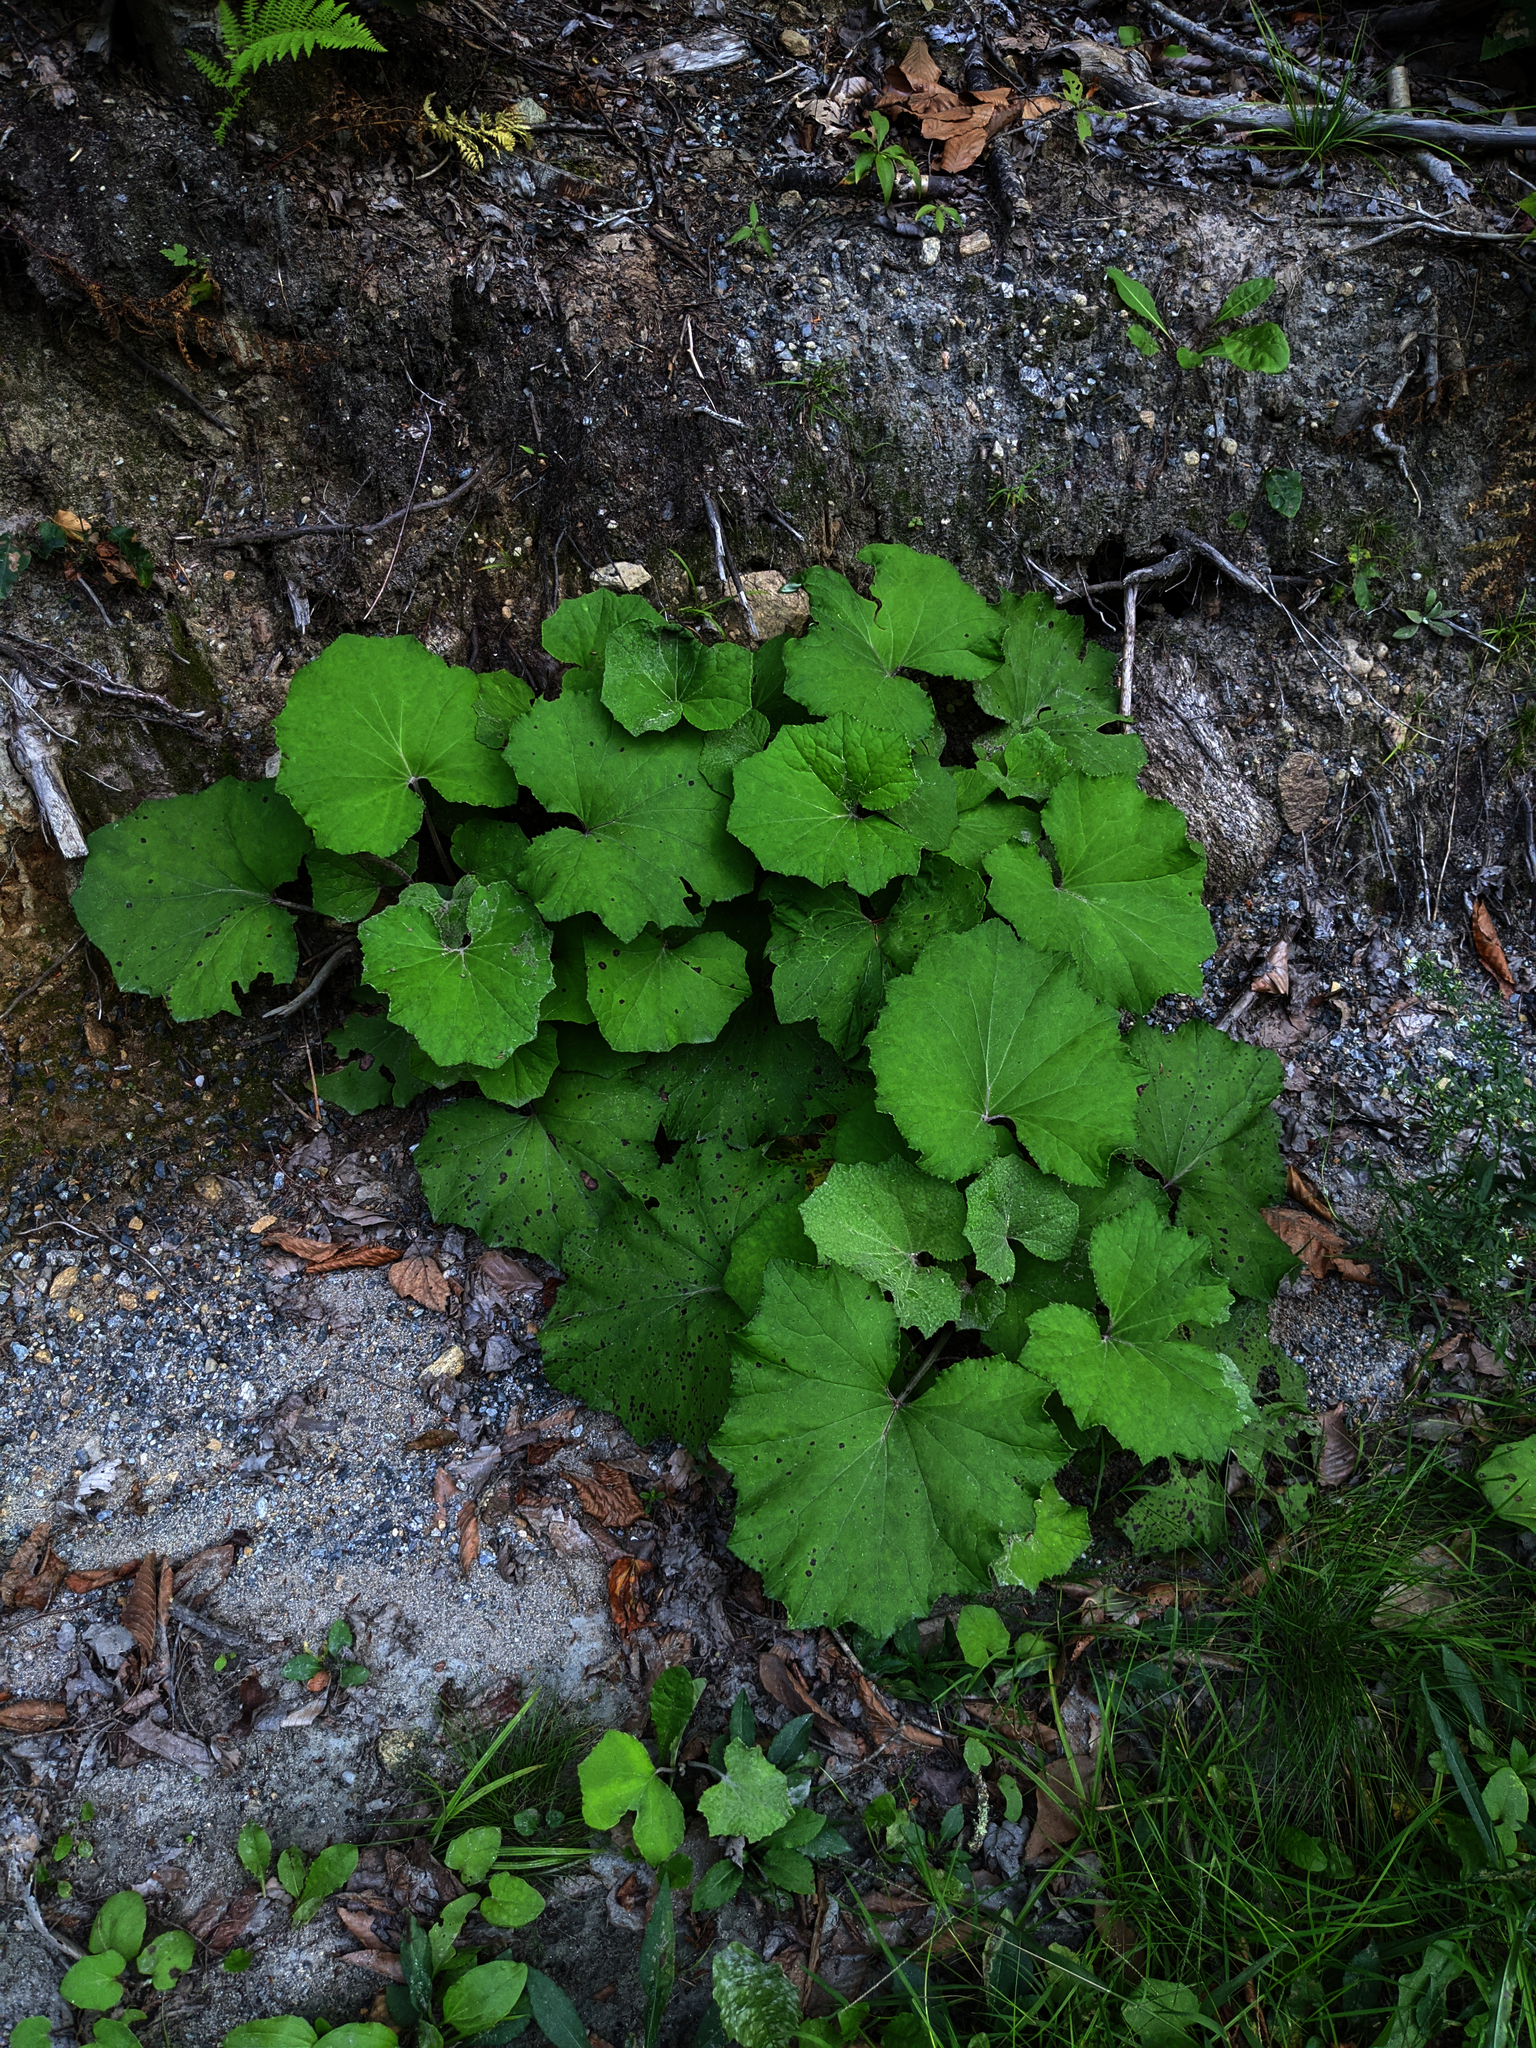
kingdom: Plantae
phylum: Tracheophyta
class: Magnoliopsida
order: Asterales
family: Asteraceae
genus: Tussilago
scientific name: Tussilago farfara
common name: Coltsfoot
